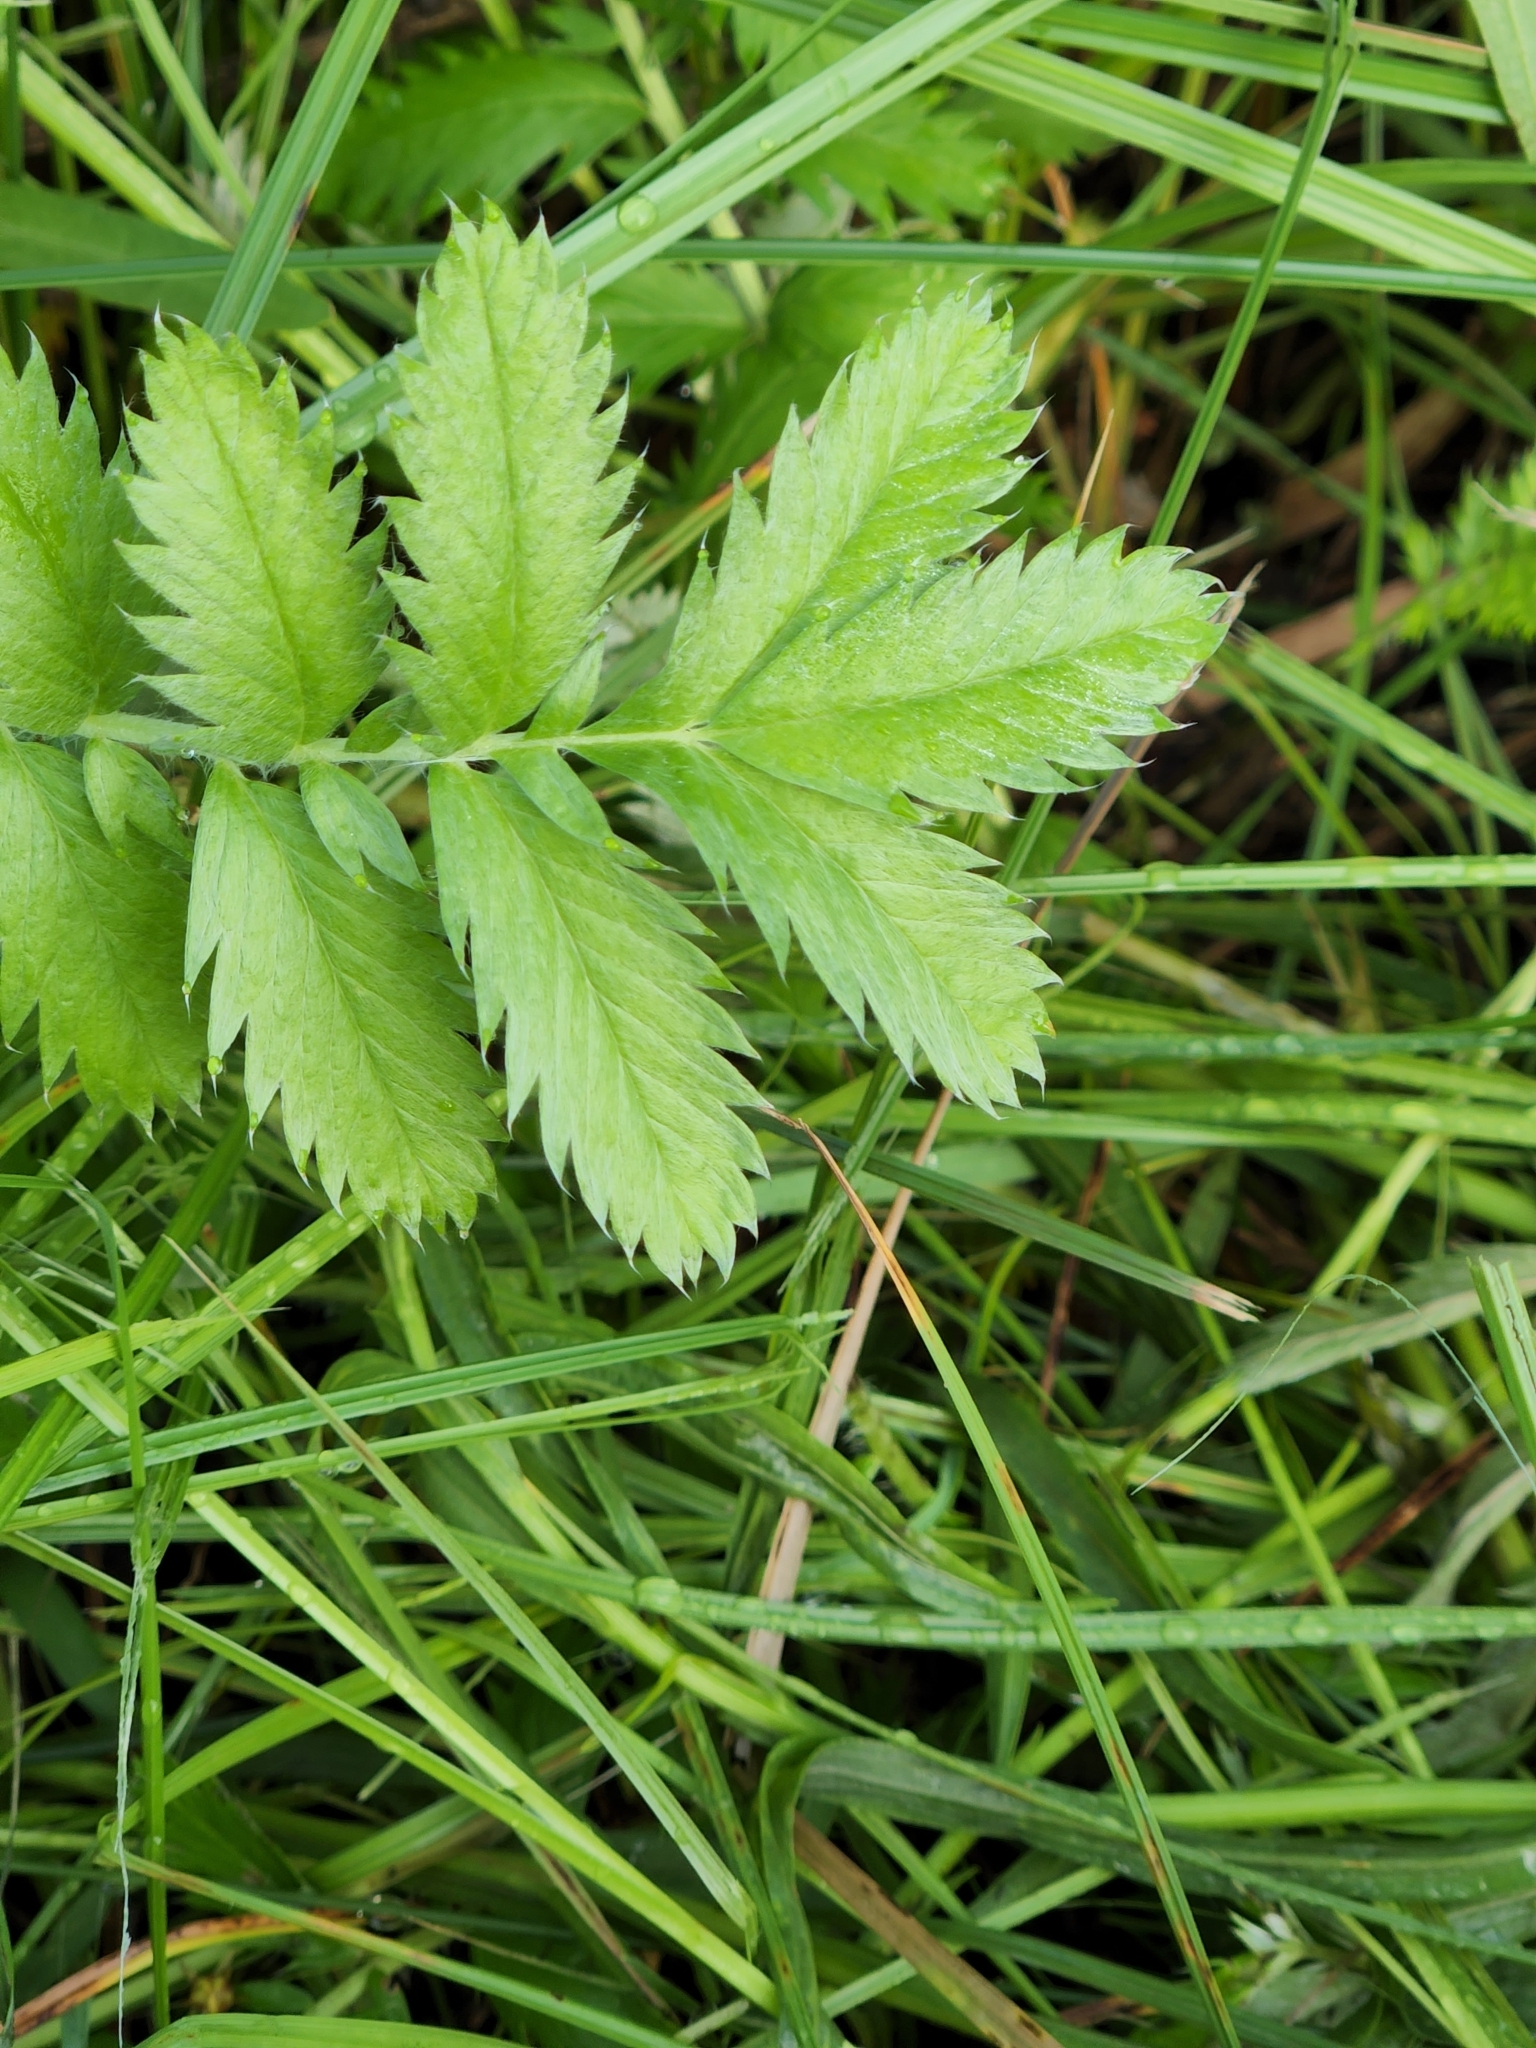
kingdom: Plantae
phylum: Tracheophyta
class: Magnoliopsida
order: Rosales
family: Rosaceae
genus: Argentina
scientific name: Argentina anserina
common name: Common silverweed
